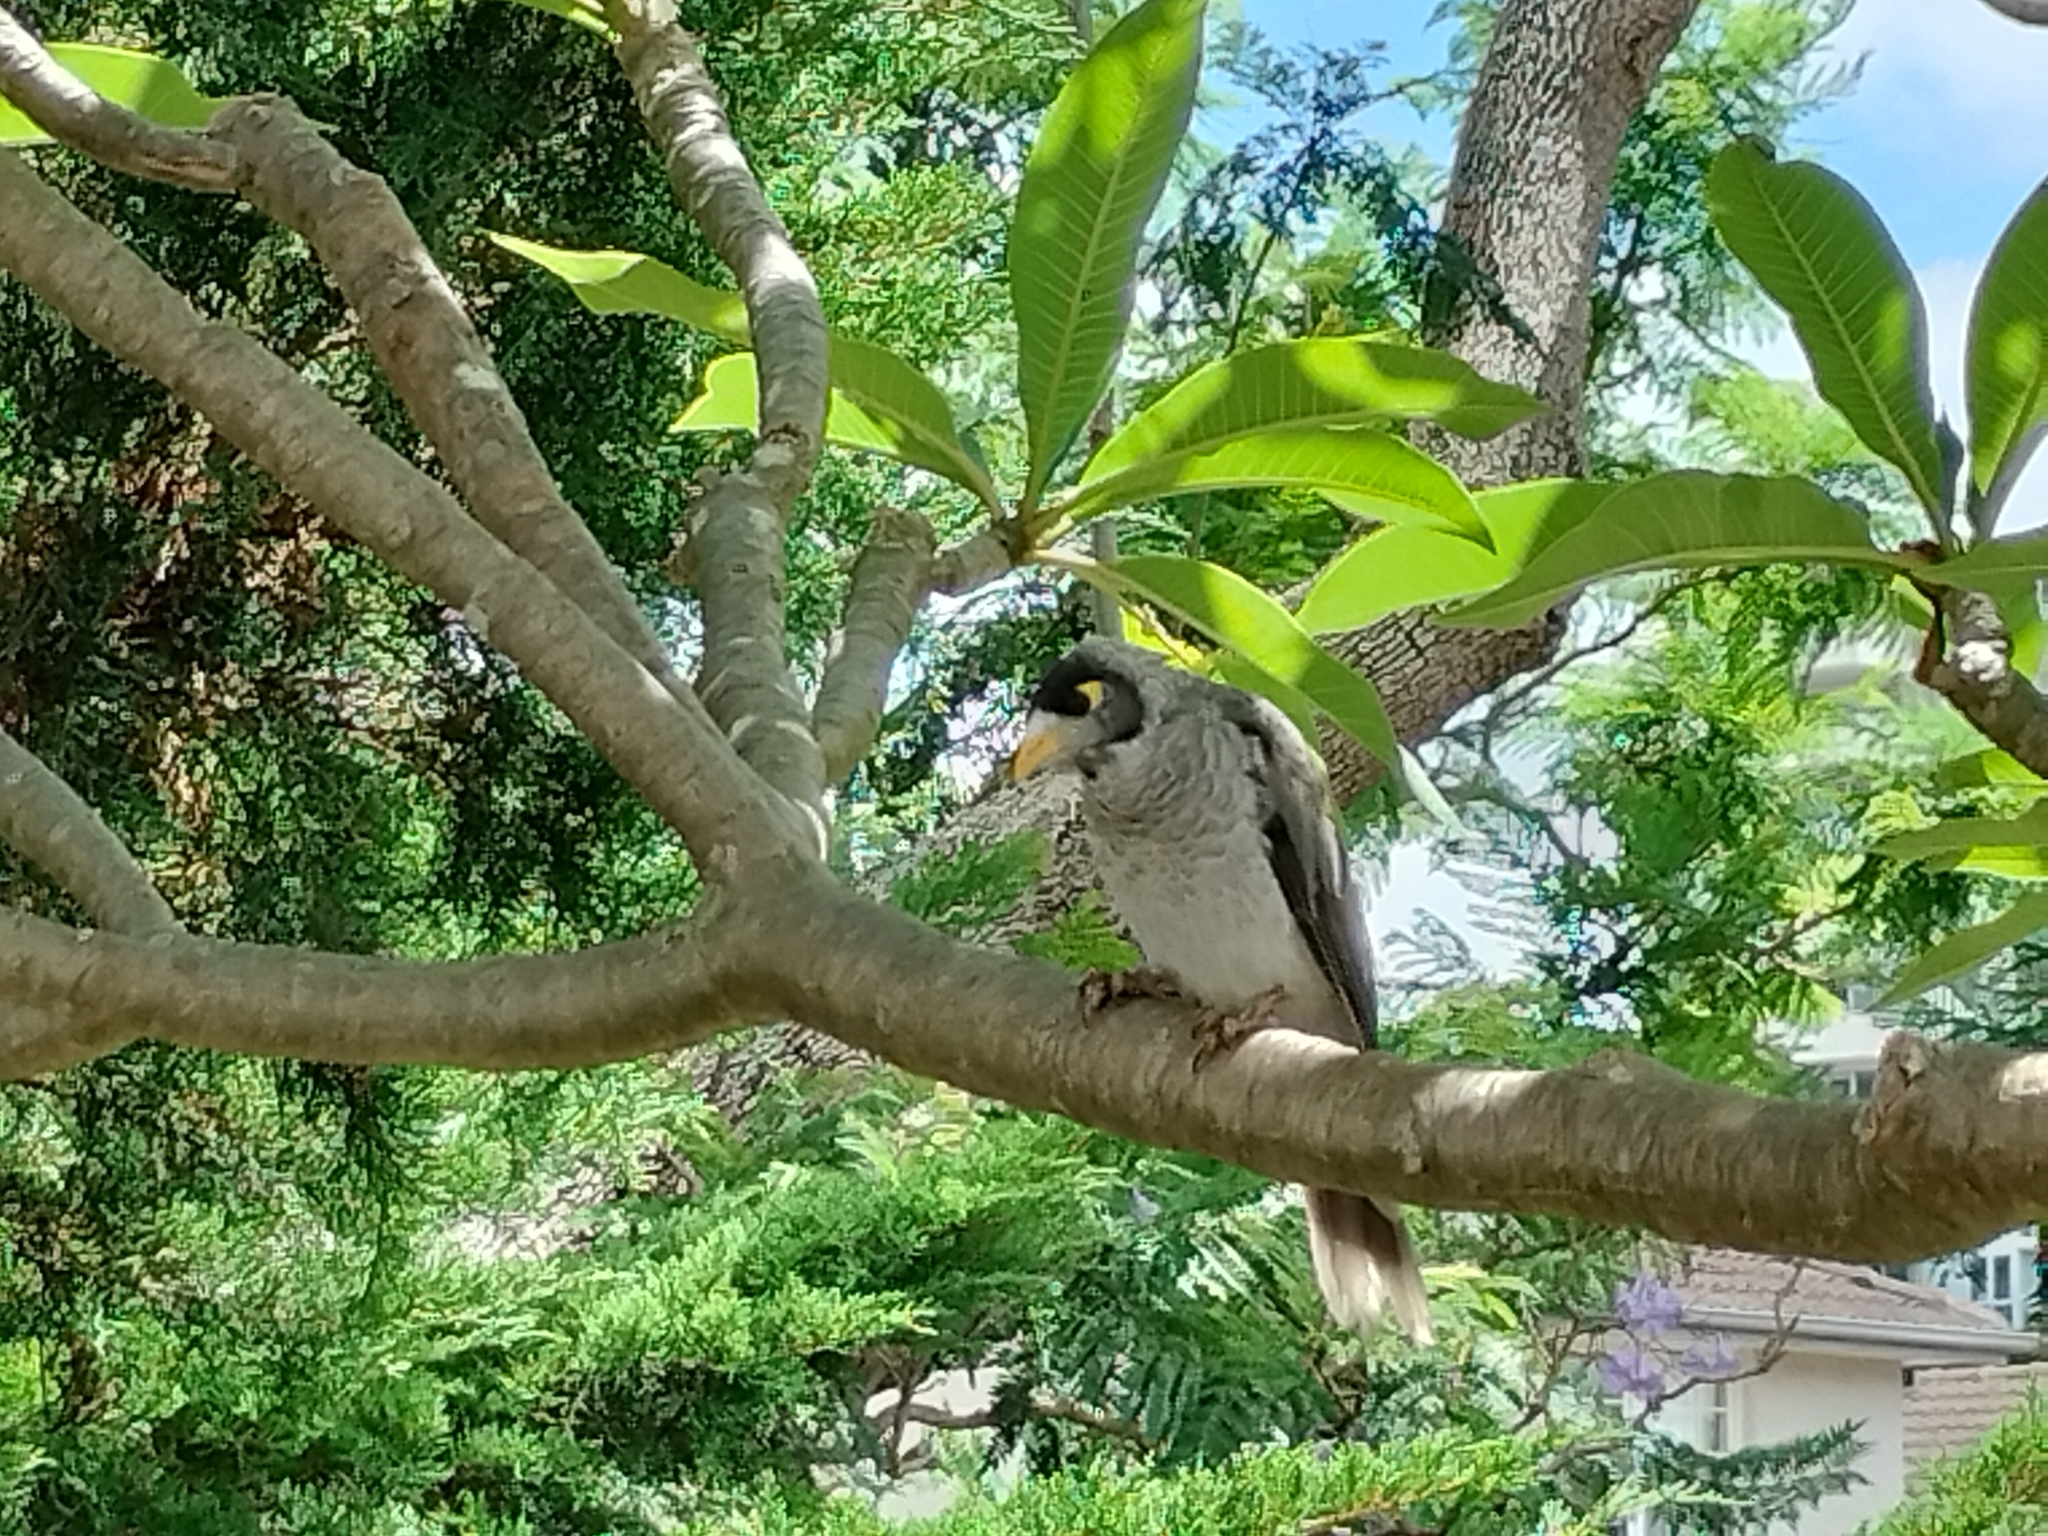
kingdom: Animalia
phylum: Chordata
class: Aves
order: Passeriformes
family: Meliphagidae
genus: Manorina
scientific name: Manorina melanocephala
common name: Noisy miner
